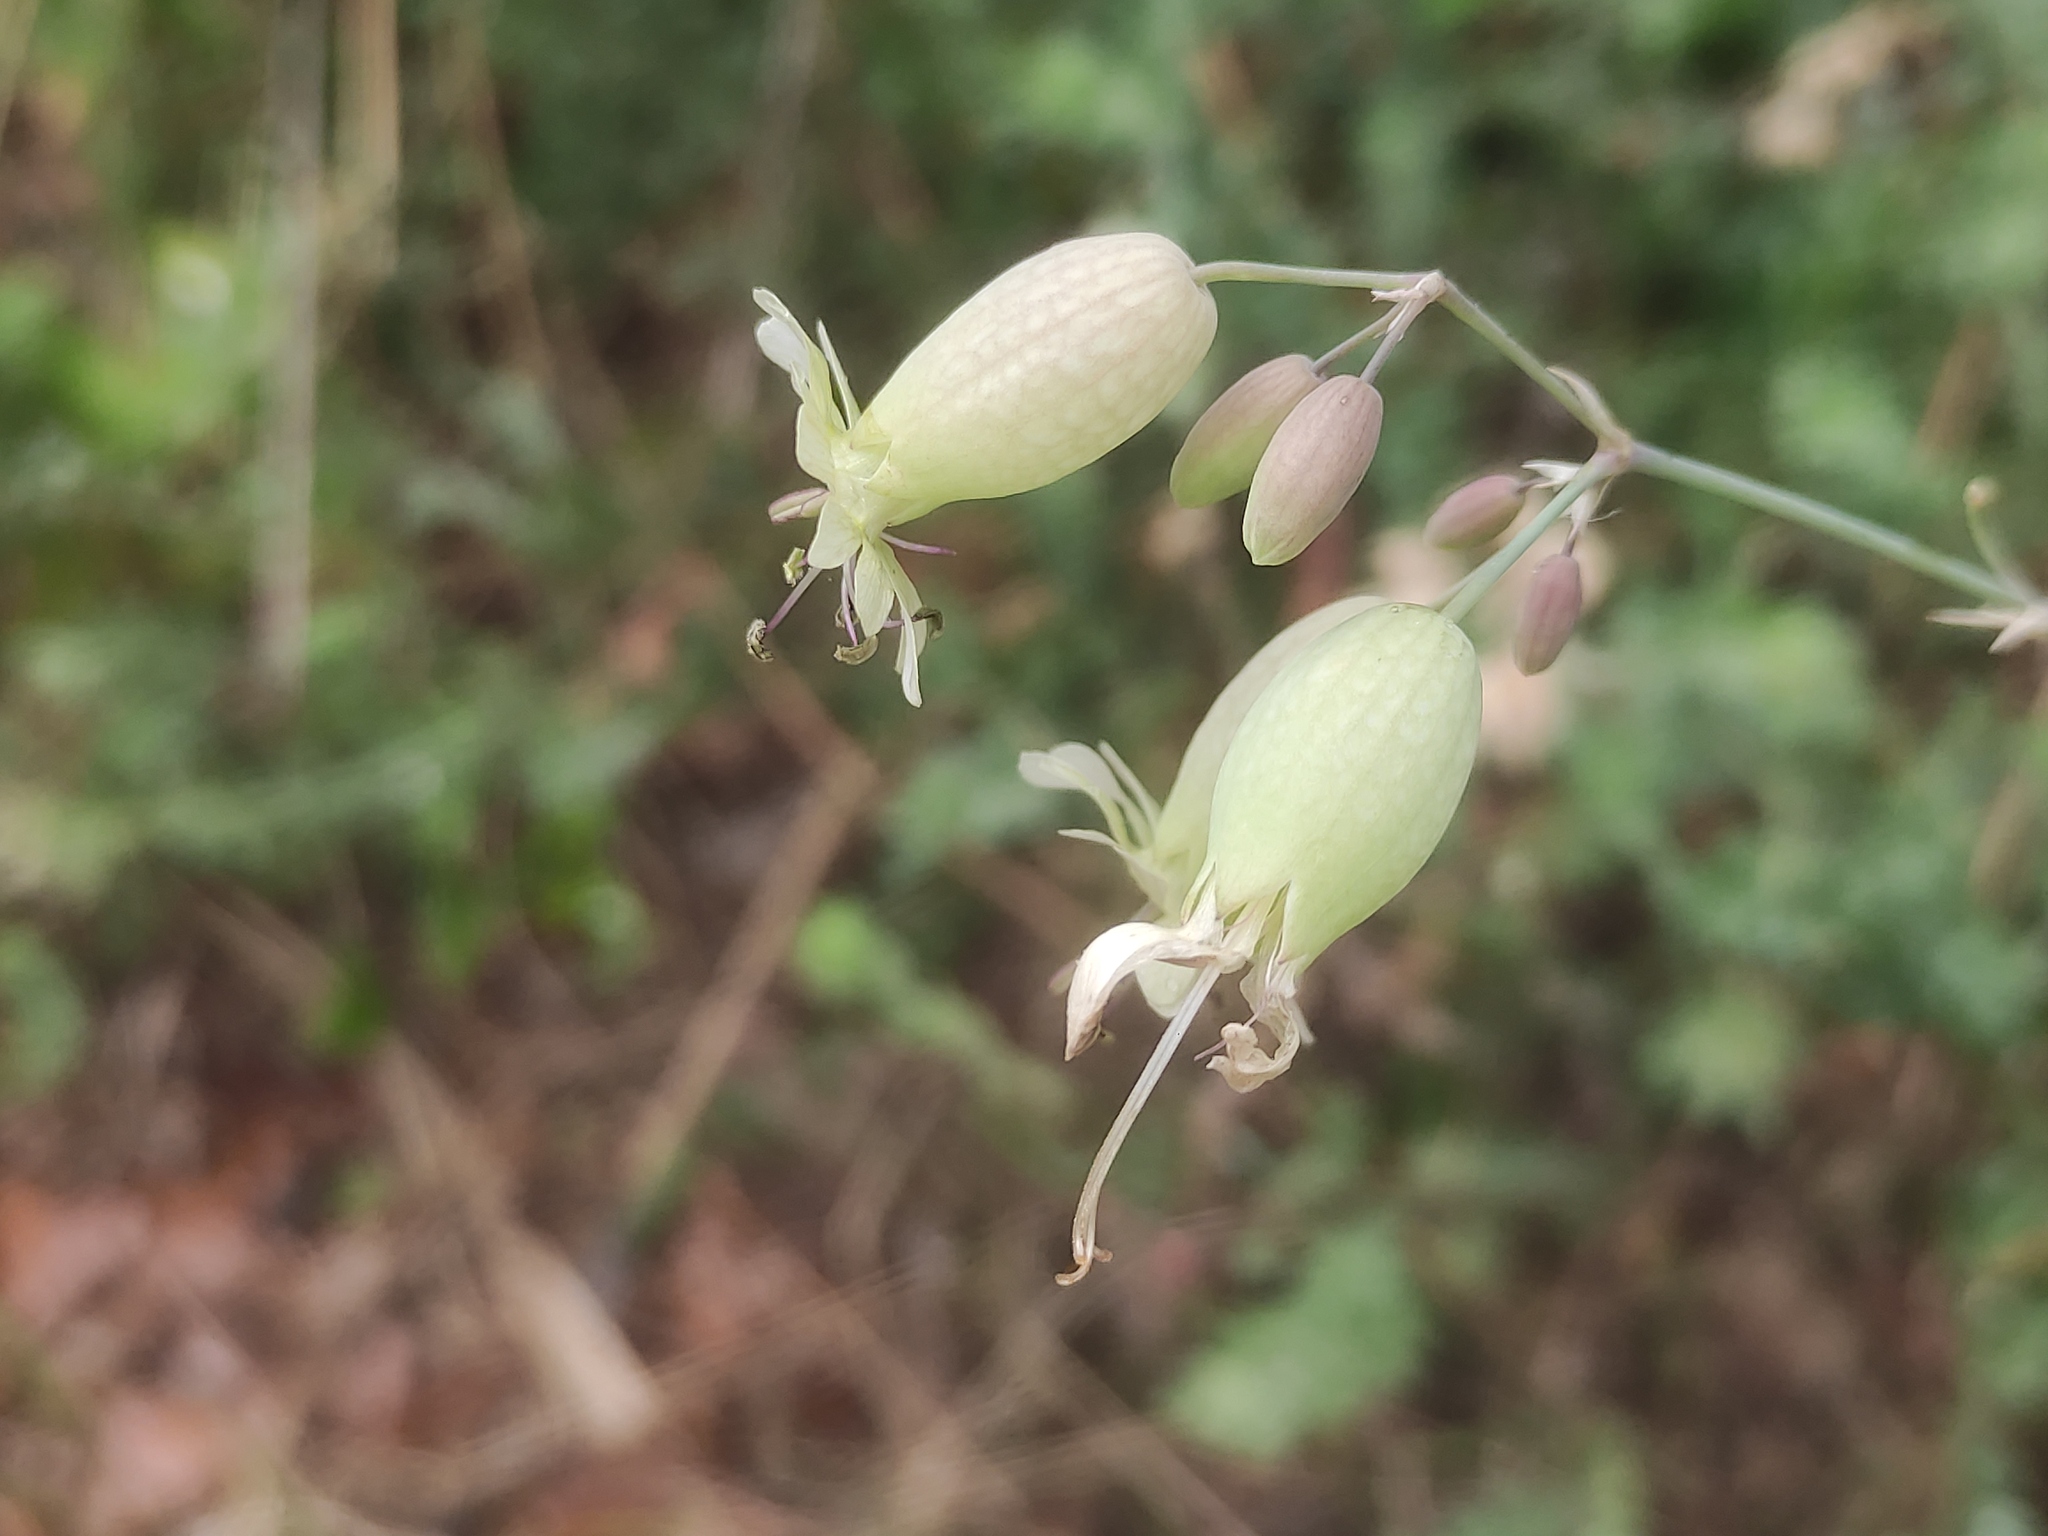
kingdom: Plantae
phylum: Tracheophyta
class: Magnoliopsida
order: Caryophyllales
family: Caryophyllaceae
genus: Silene
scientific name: Silene vulgaris
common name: Bladder campion
